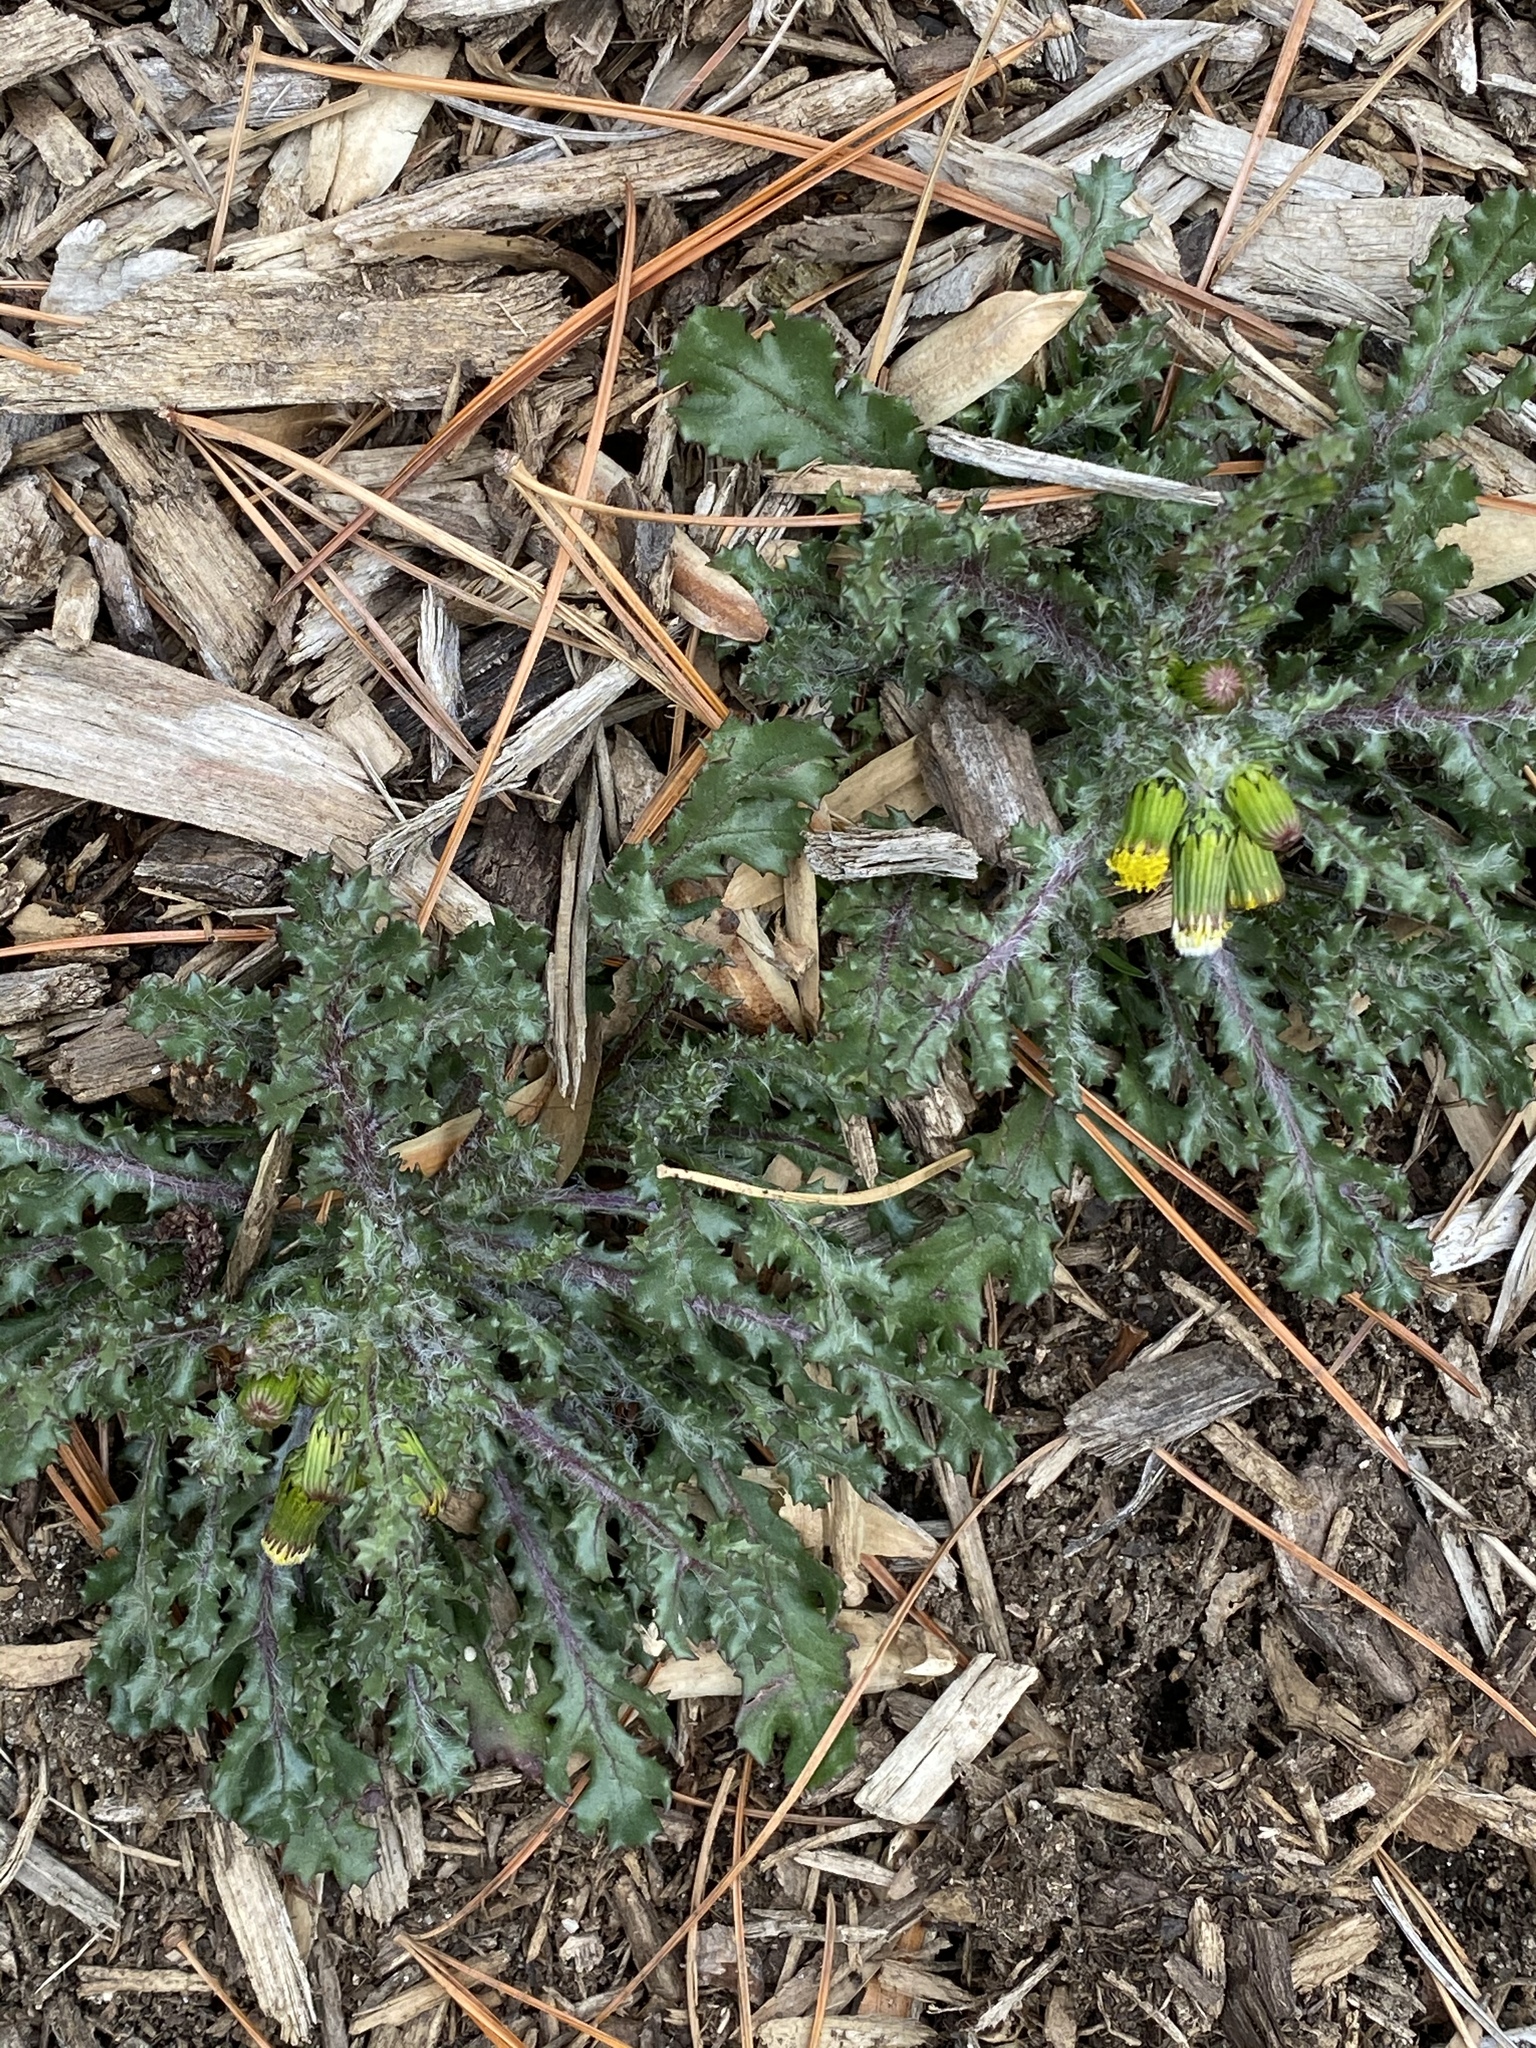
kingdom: Plantae
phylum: Tracheophyta
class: Magnoliopsida
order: Asterales
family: Asteraceae
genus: Senecio
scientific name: Senecio vulgaris
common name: Old-man-in-the-spring
